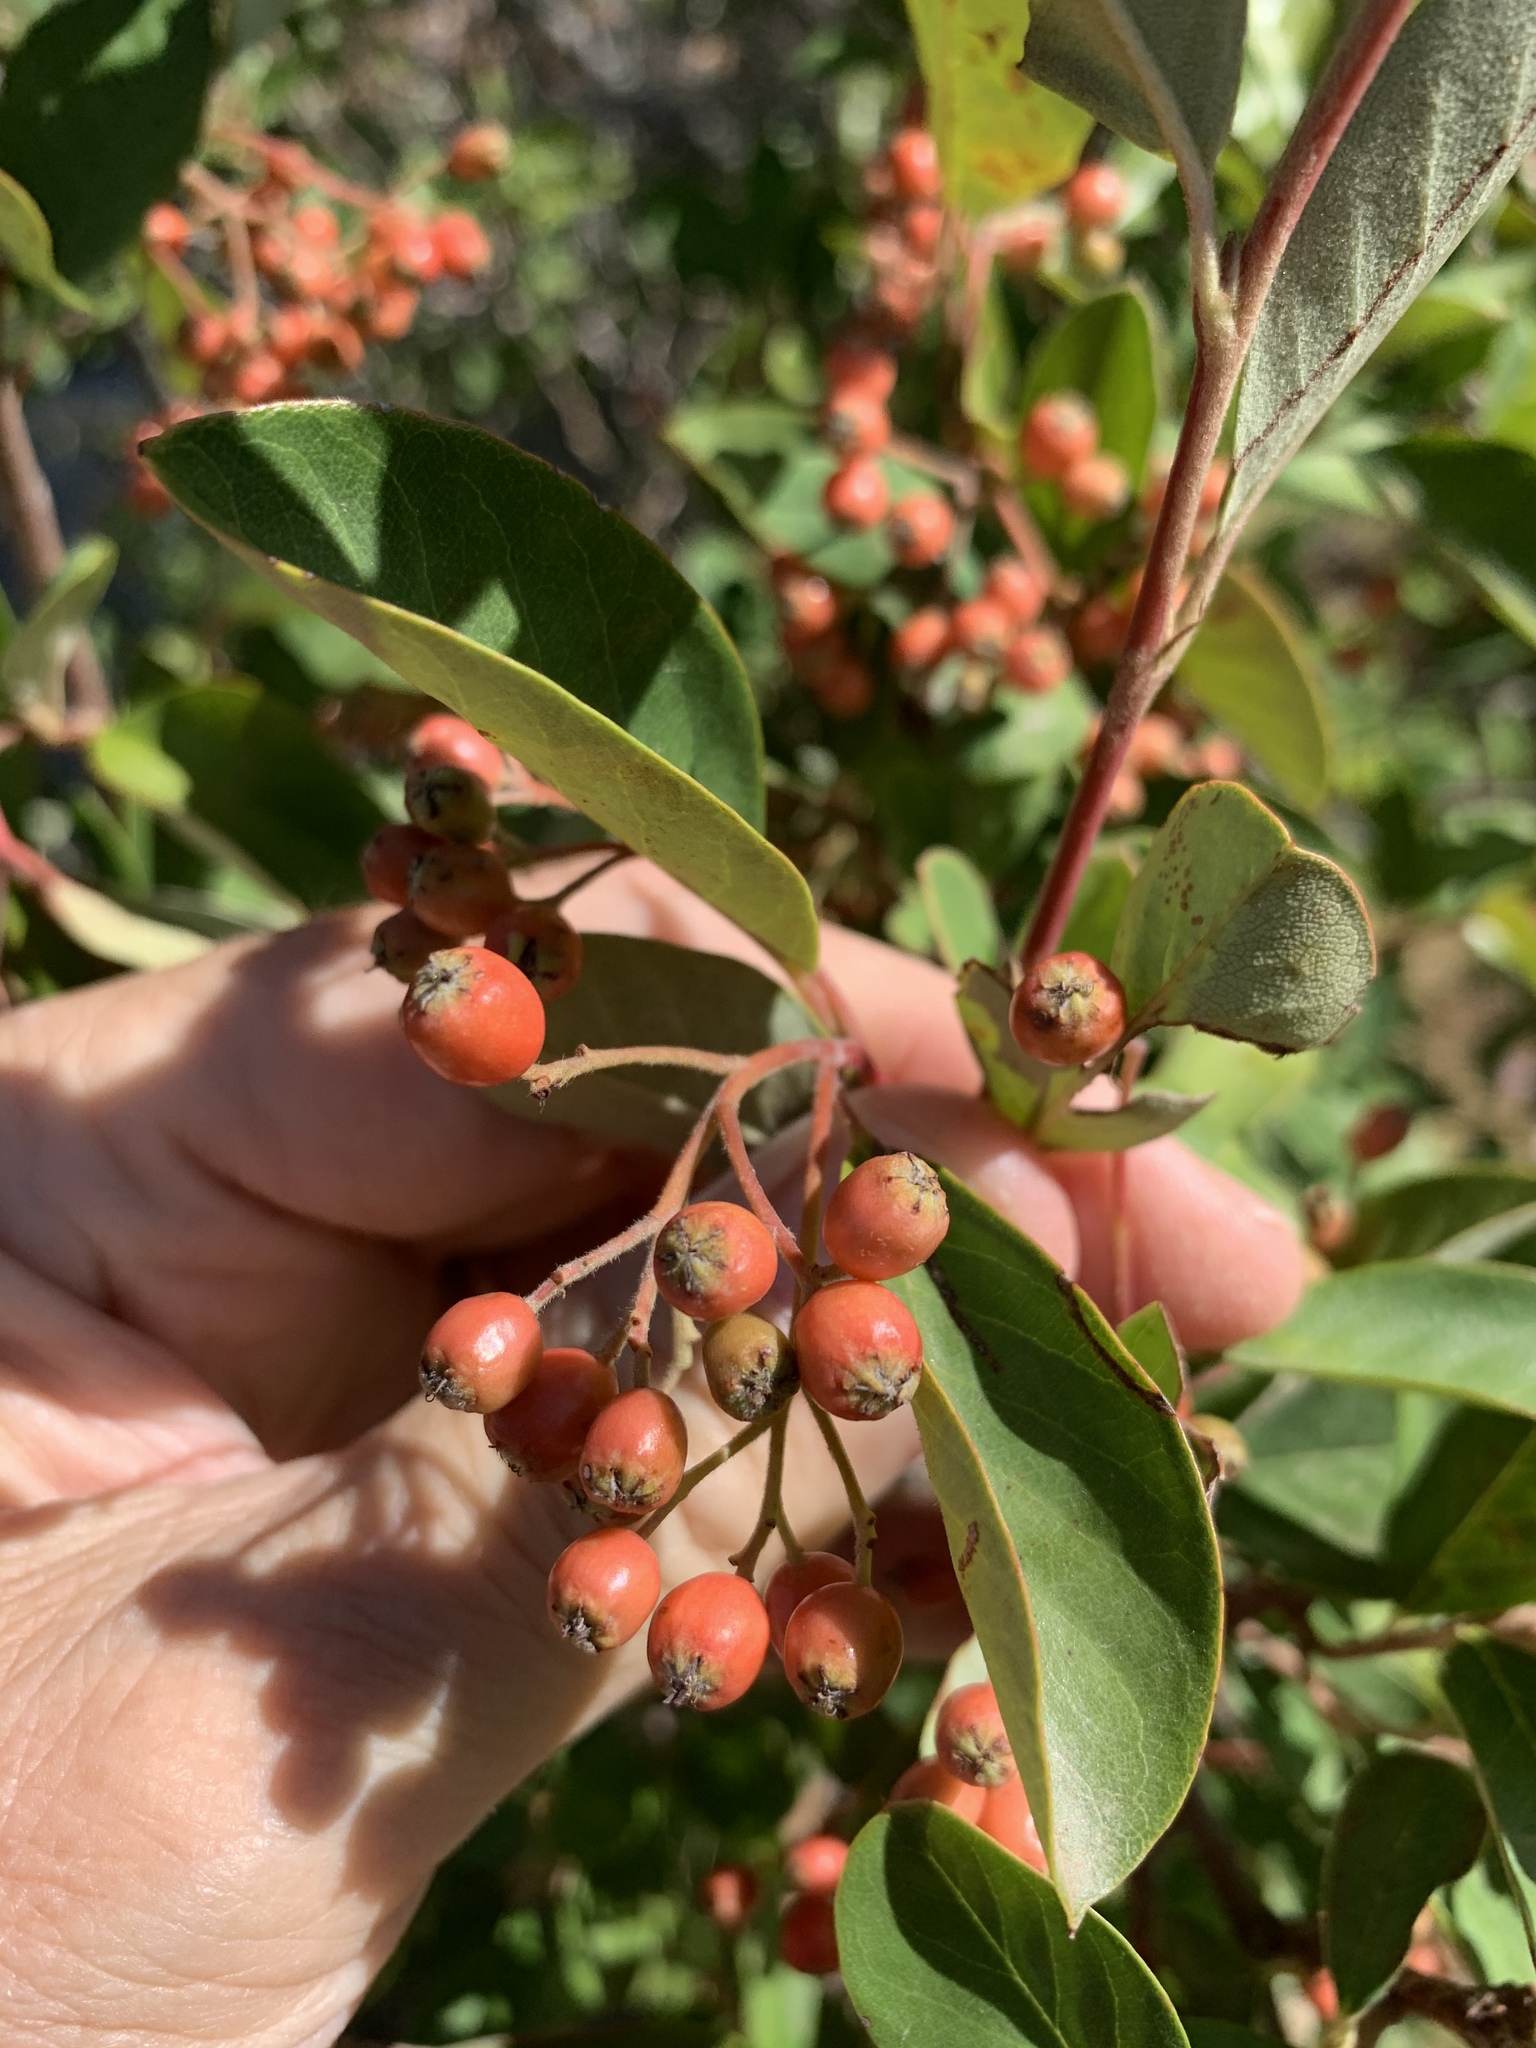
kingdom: Plantae
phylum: Tracheophyta
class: Magnoliopsida
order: Rosales
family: Rosaceae
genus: Cotoneaster
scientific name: Cotoneaster glaucophyllus
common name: Glaucous cotoneaster
